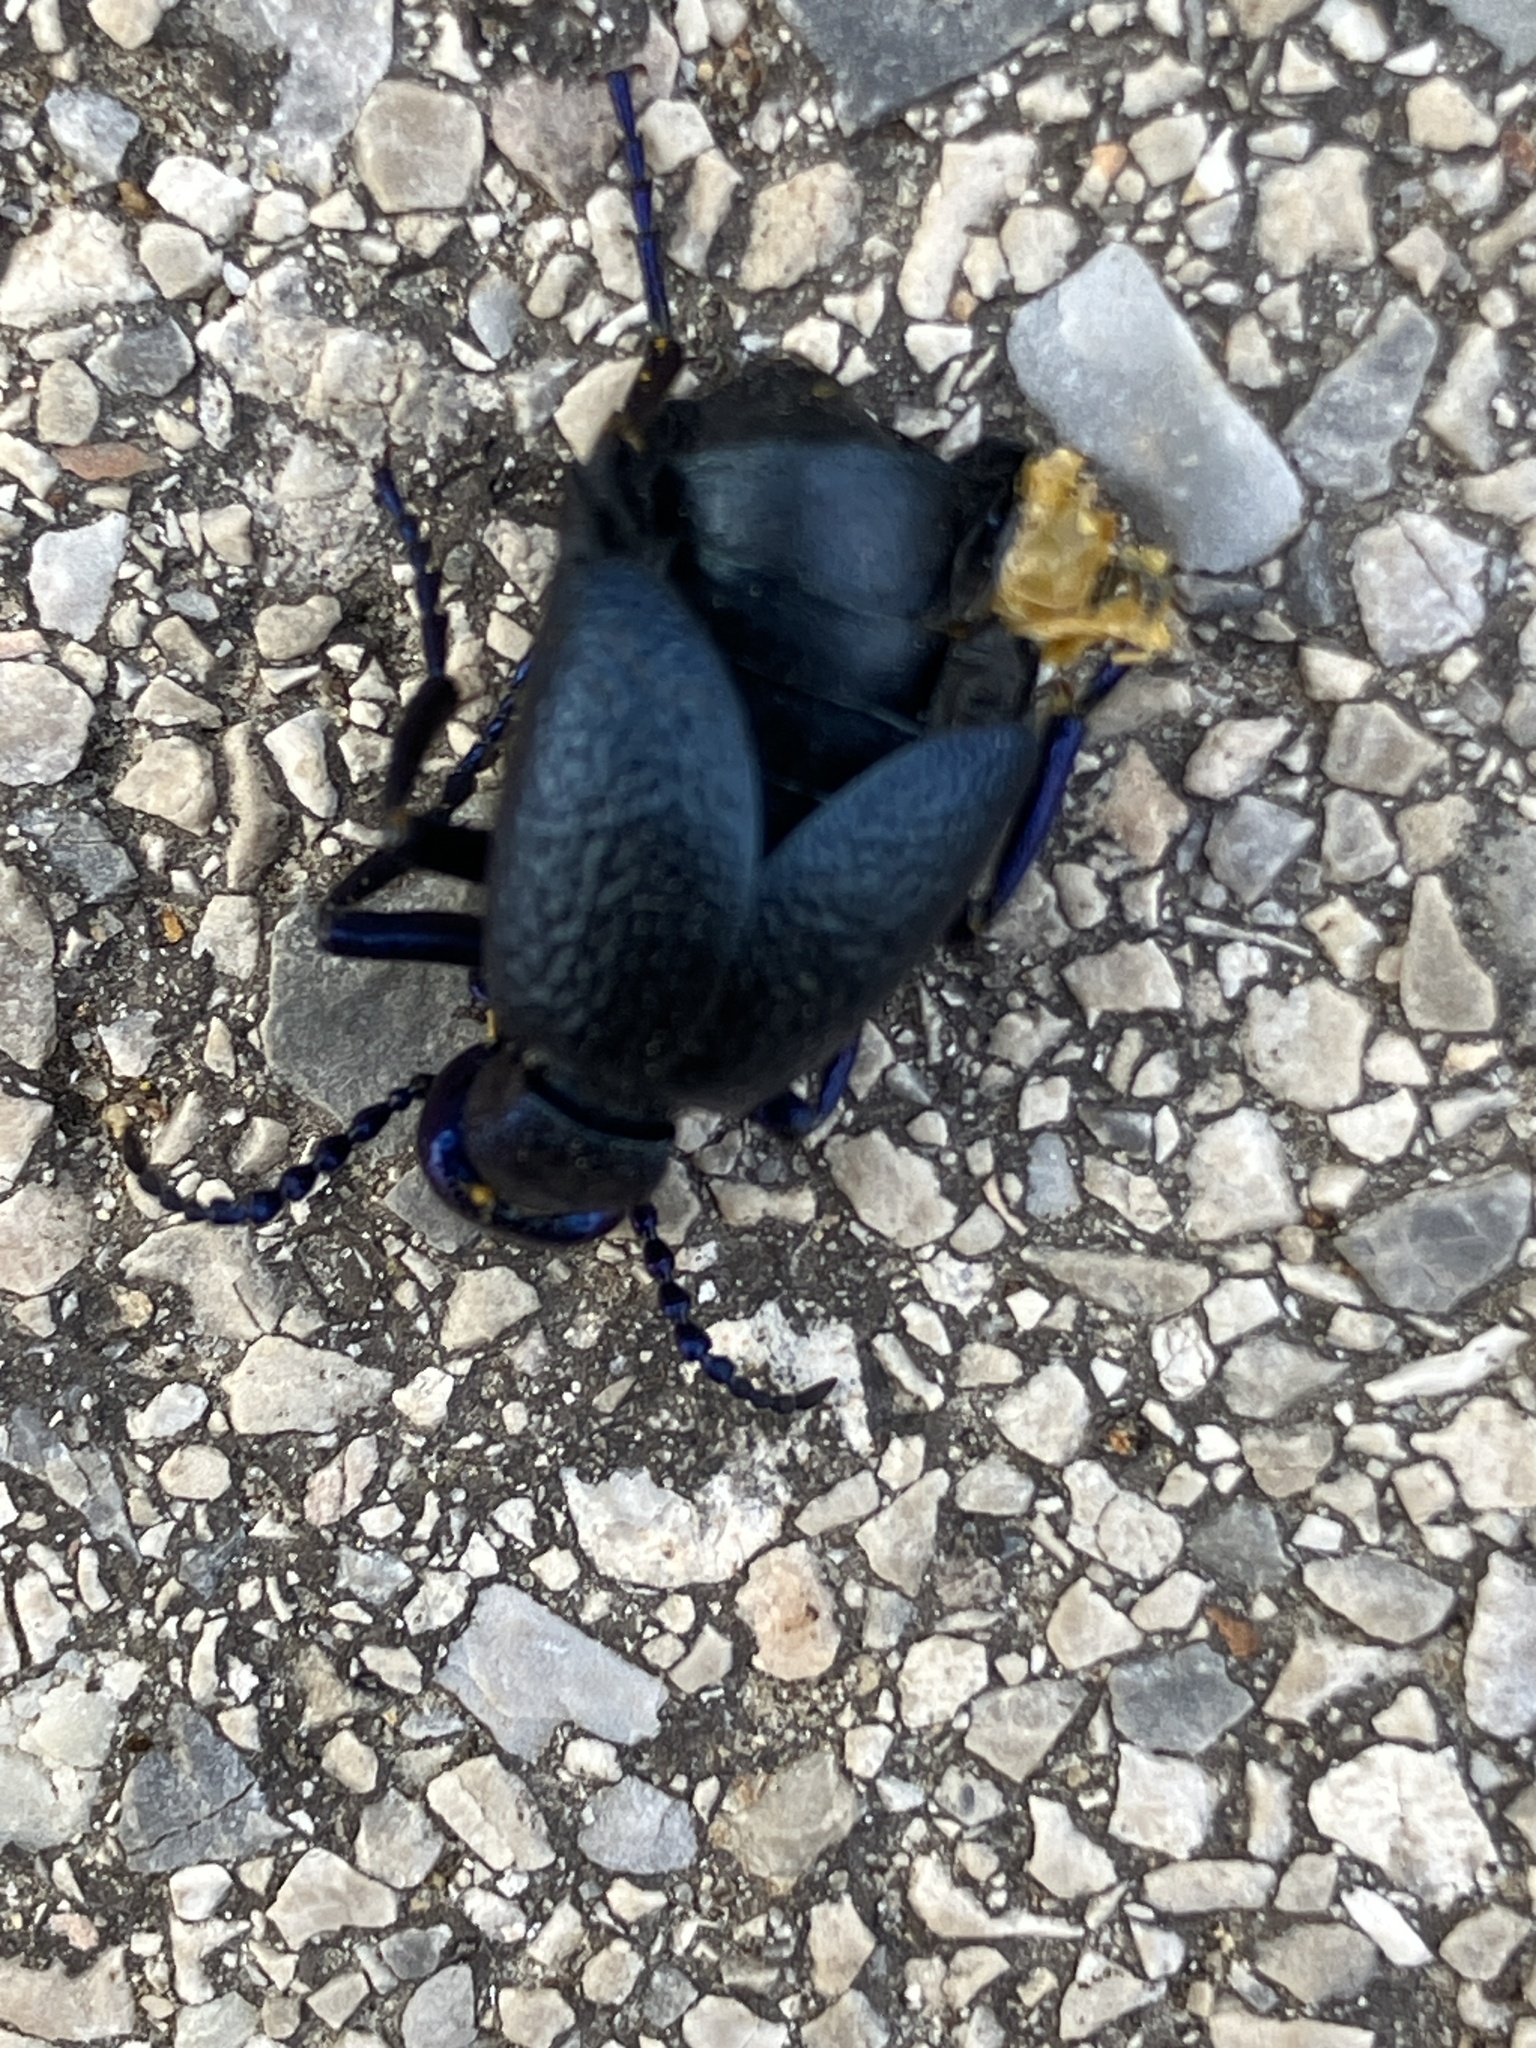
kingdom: Animalia
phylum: Arthropoda
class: Insecta
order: Coleoptera
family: Meloidae
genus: Meloe
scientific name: Meloe proscarabaeus
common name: Black oil-beetle
